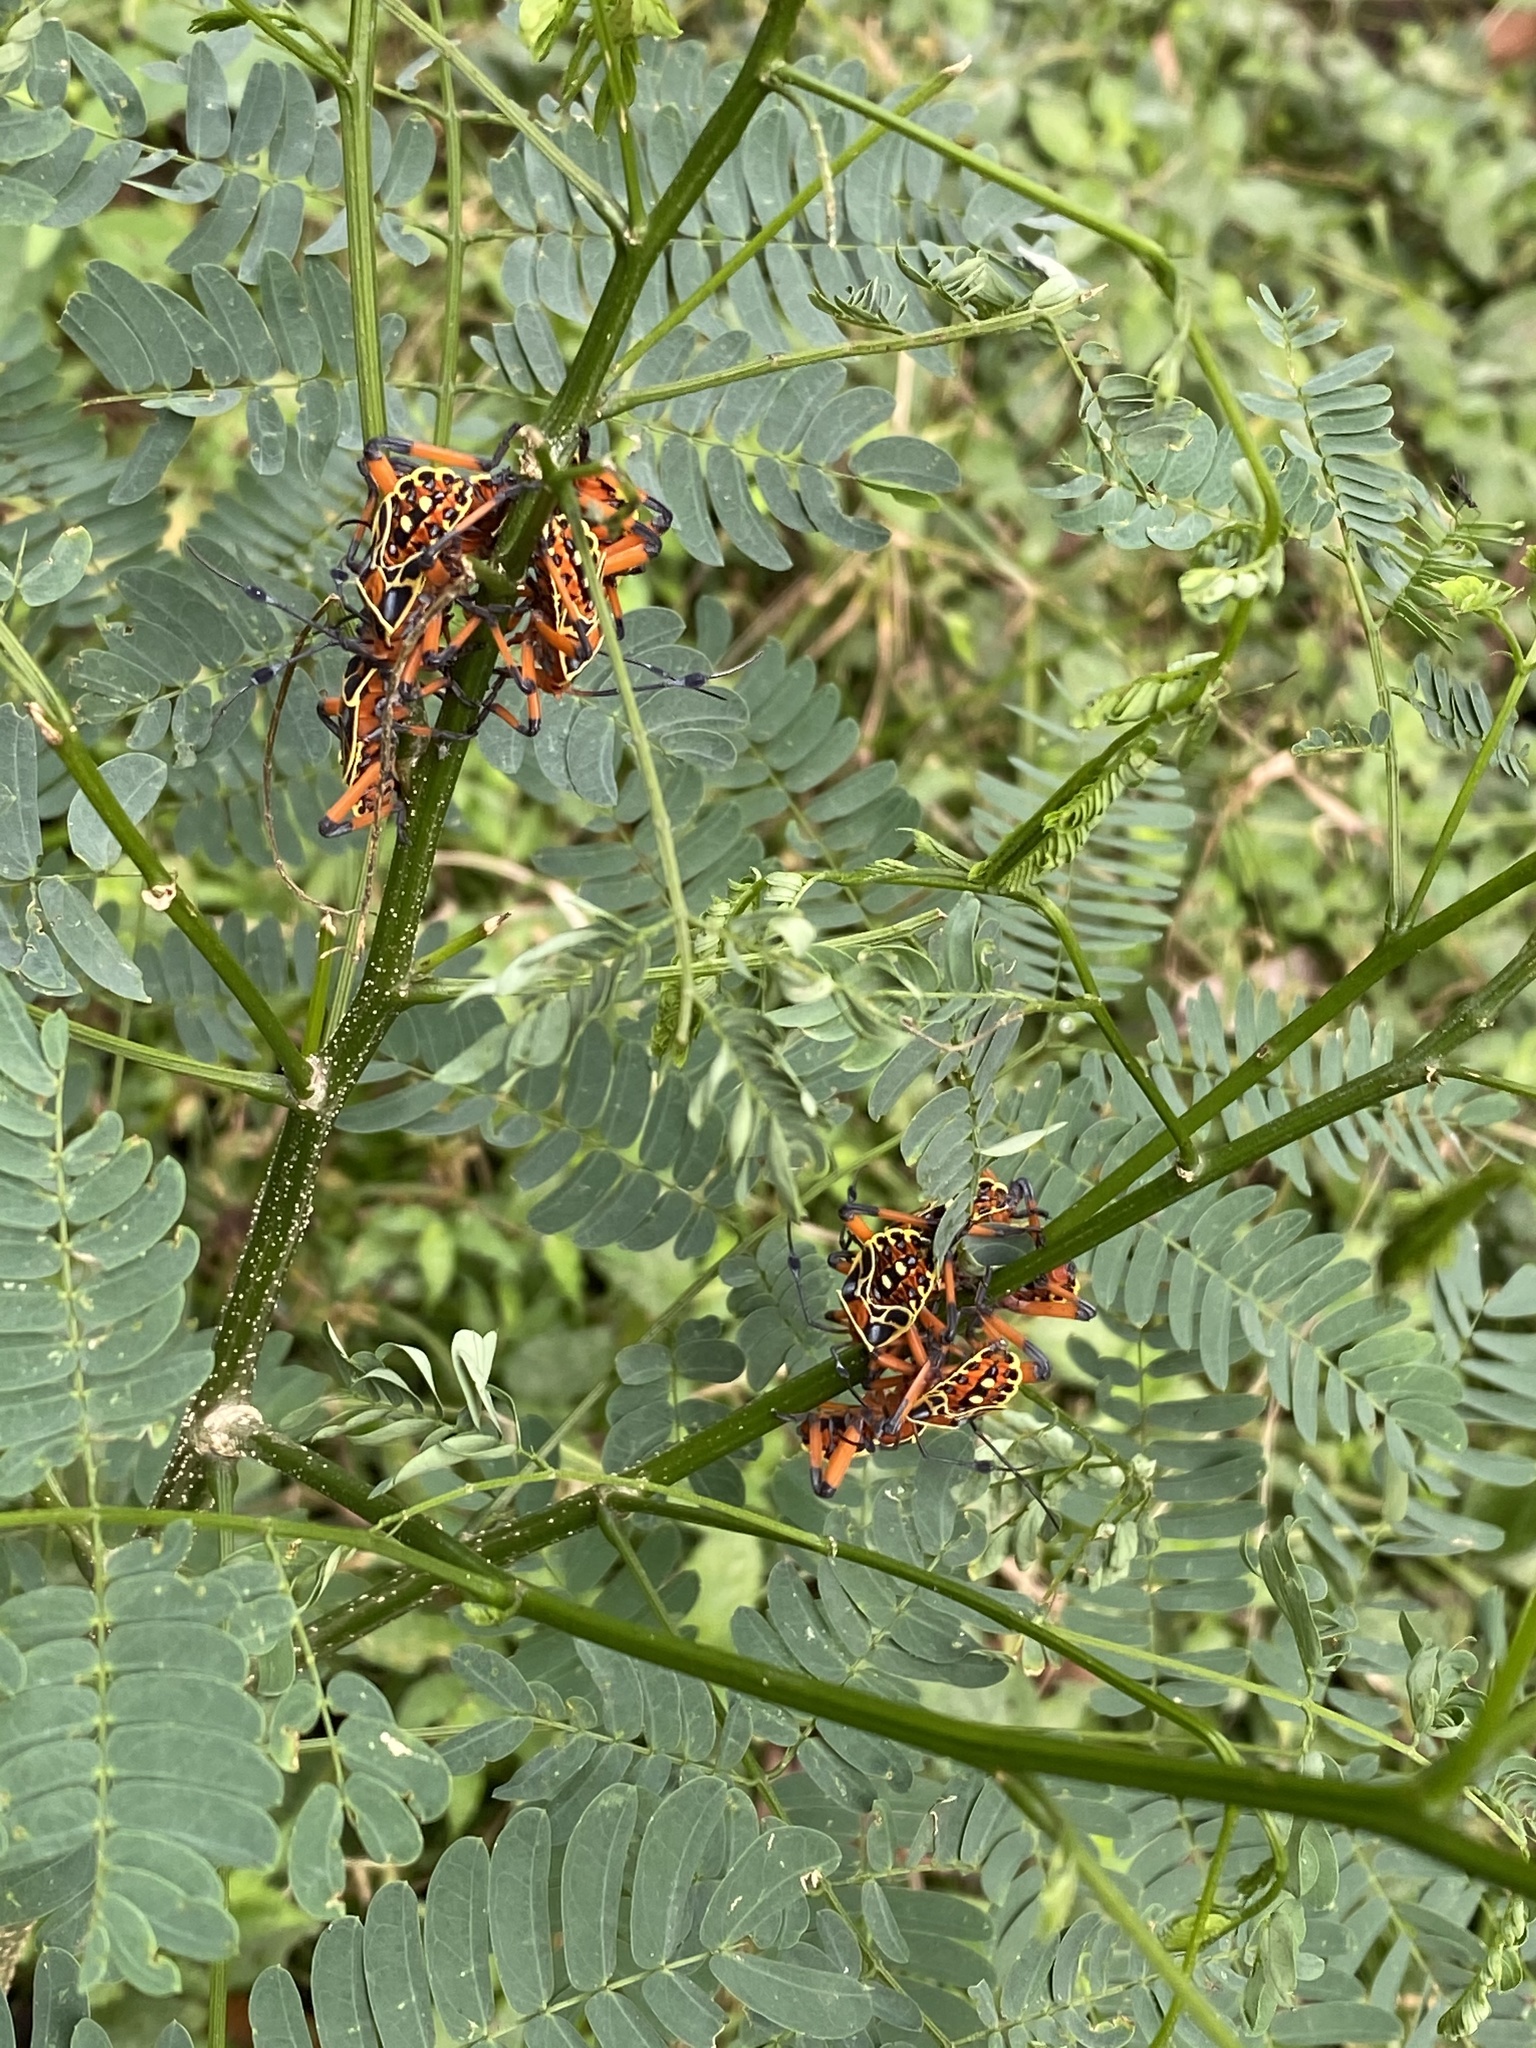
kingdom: Animalia
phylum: Arthropoda
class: Insecta
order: Hemiptera
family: Coreidae
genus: Pachylis
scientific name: Pachylis nervosus
